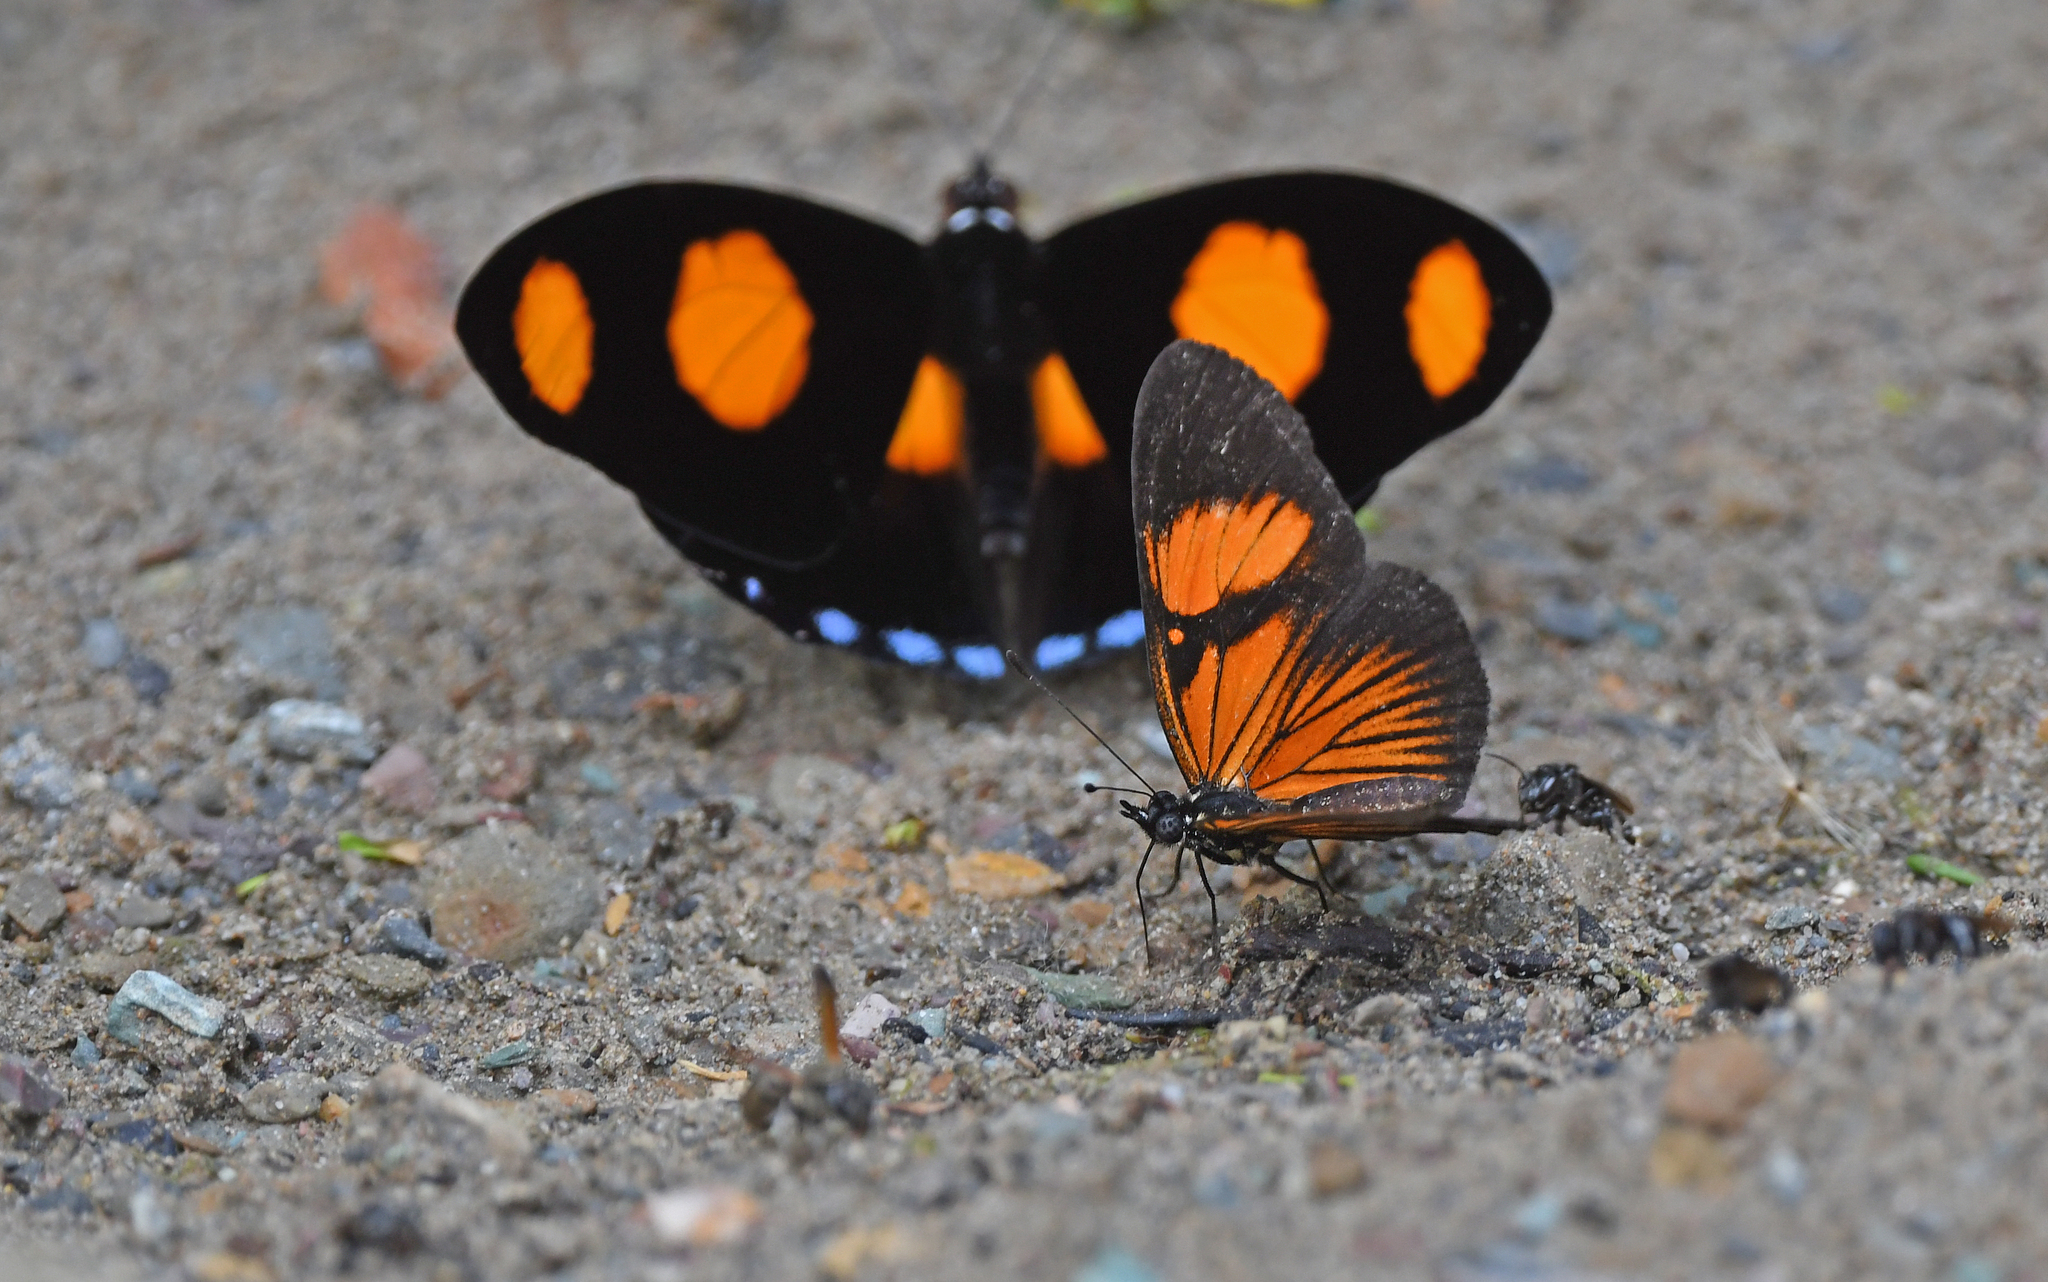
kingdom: Animalia
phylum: Arthropoda
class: Insecta
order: Lepidoptera
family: Nymphalidae
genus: Castilia
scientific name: Castilia perilla
